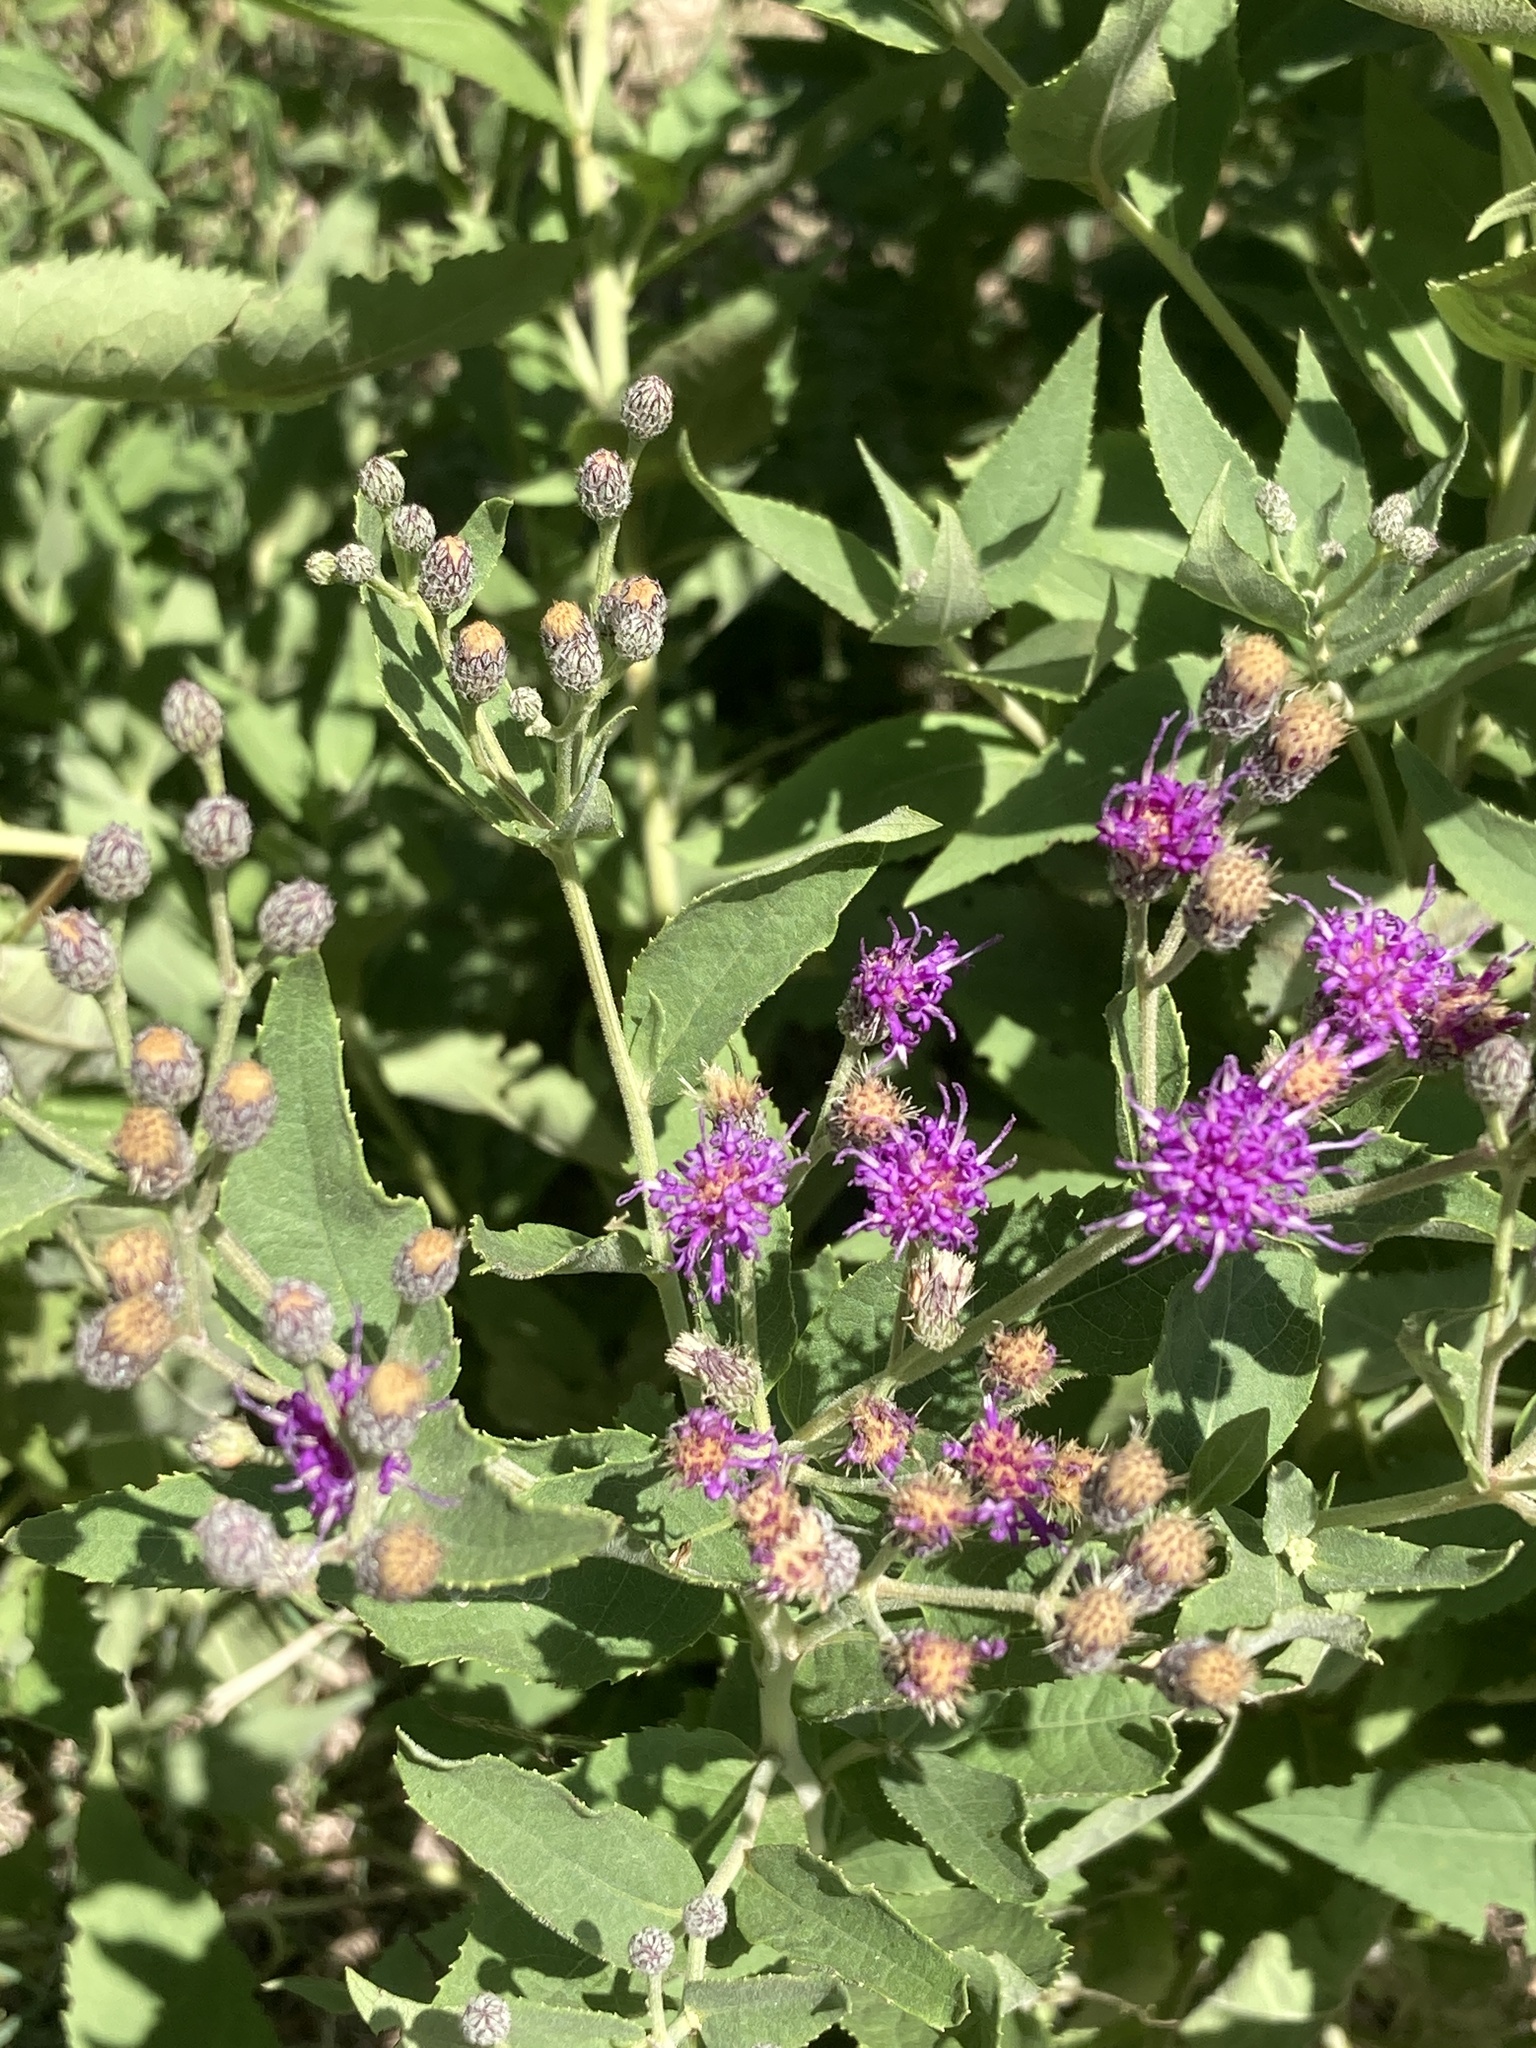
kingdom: Plantae
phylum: Tracheophyta
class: Magnoliopsida
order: Asterales
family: Asteraceae
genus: Vernonia
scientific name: Vernonia baldwinii
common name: Western ironweed
